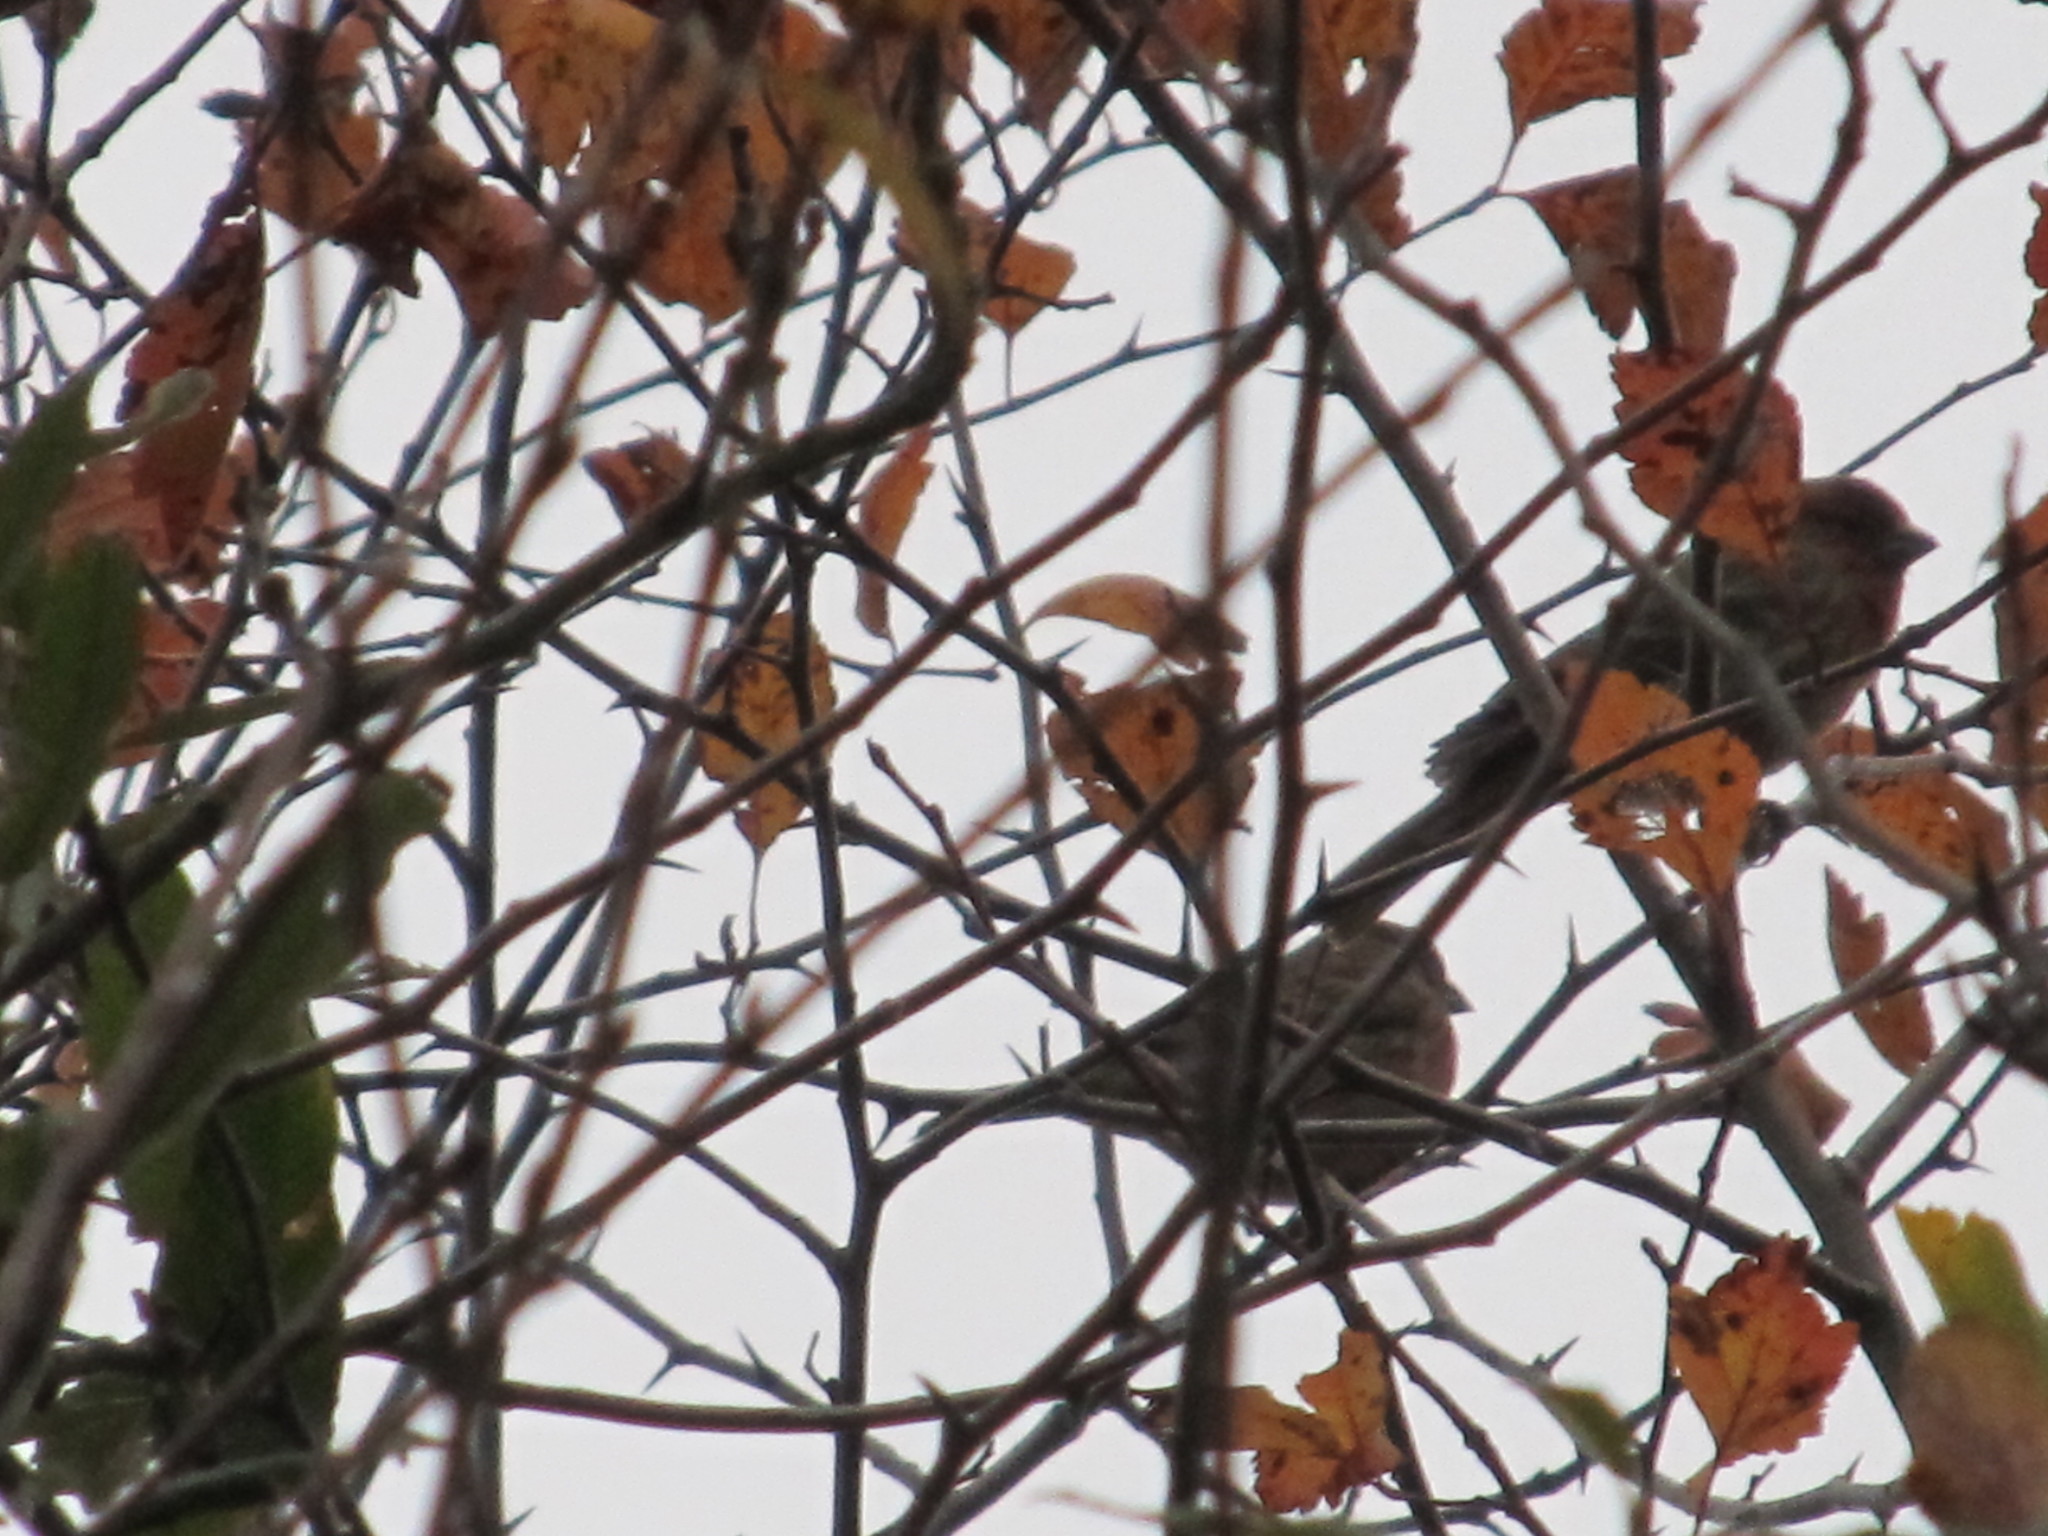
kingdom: Animalia
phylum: Chordata
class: Aves
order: Passeriformes
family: Fringillidae
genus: Haemorhous
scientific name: Haemorhous mexicanus
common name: House finch
